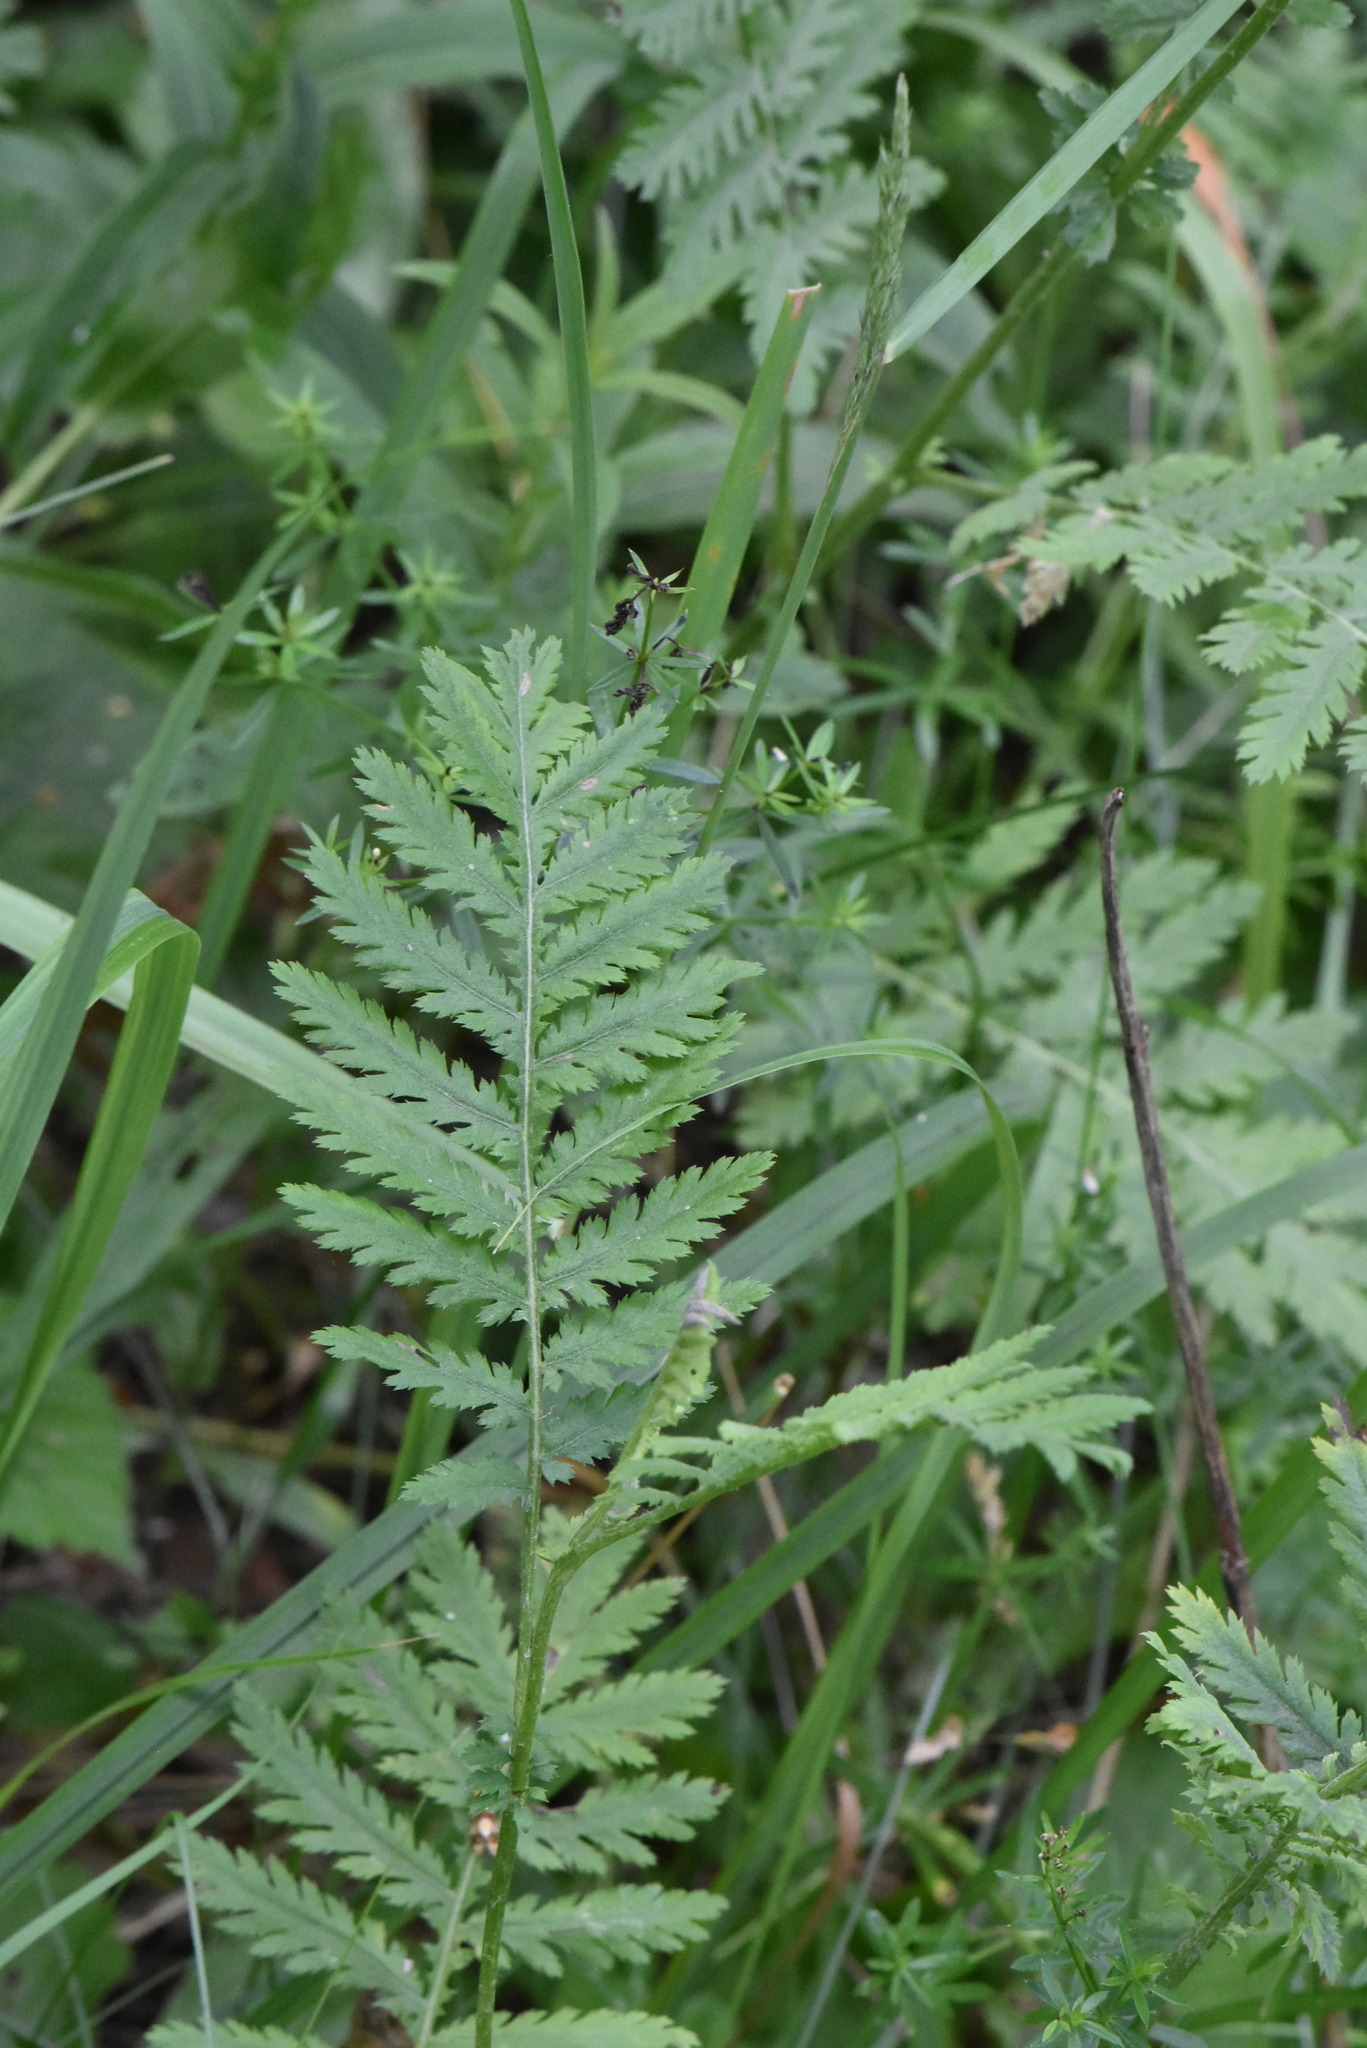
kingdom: Plantae
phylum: Tracheophyta
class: Magnoliopsida
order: Asterales
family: Asteraceae
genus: Tanacetum
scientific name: Tanacetum vulgare
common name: Common tansy
